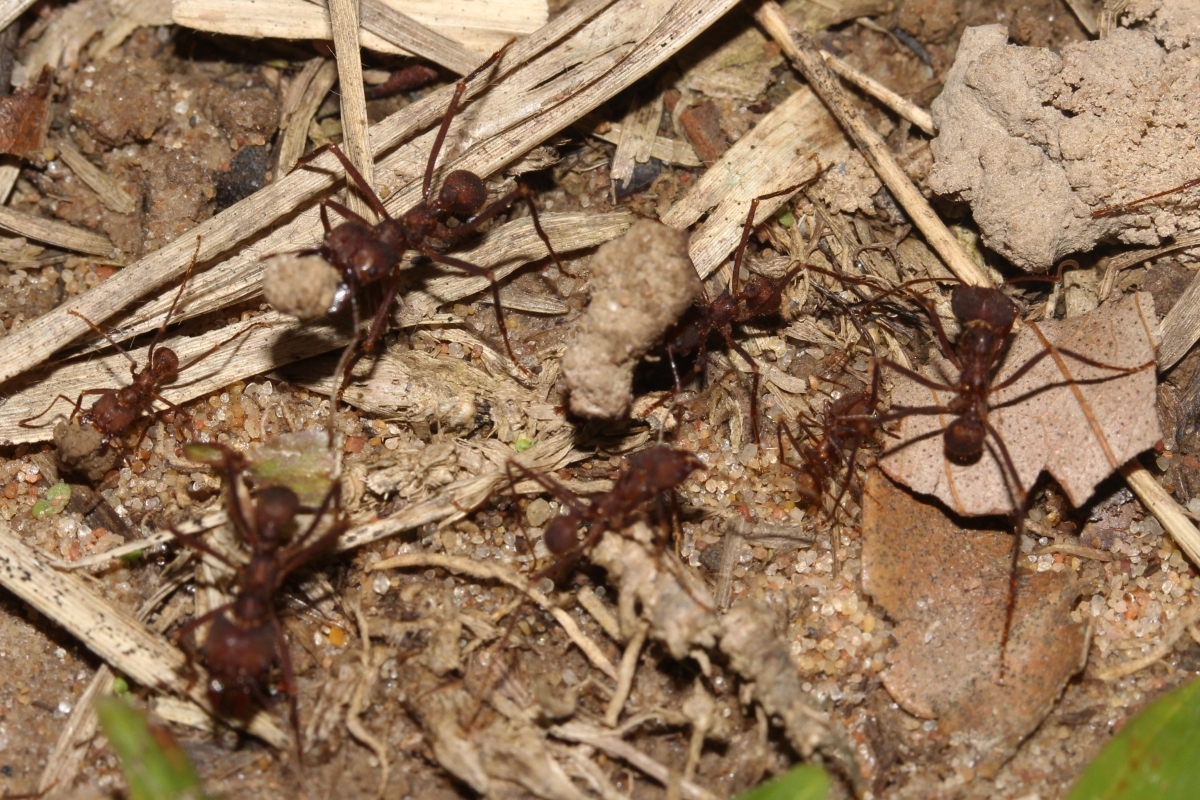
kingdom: Animalia
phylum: Arthropoda
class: Insecta
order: Hymenoptera
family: Formicidae
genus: Atta
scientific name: Atta cephalotes
